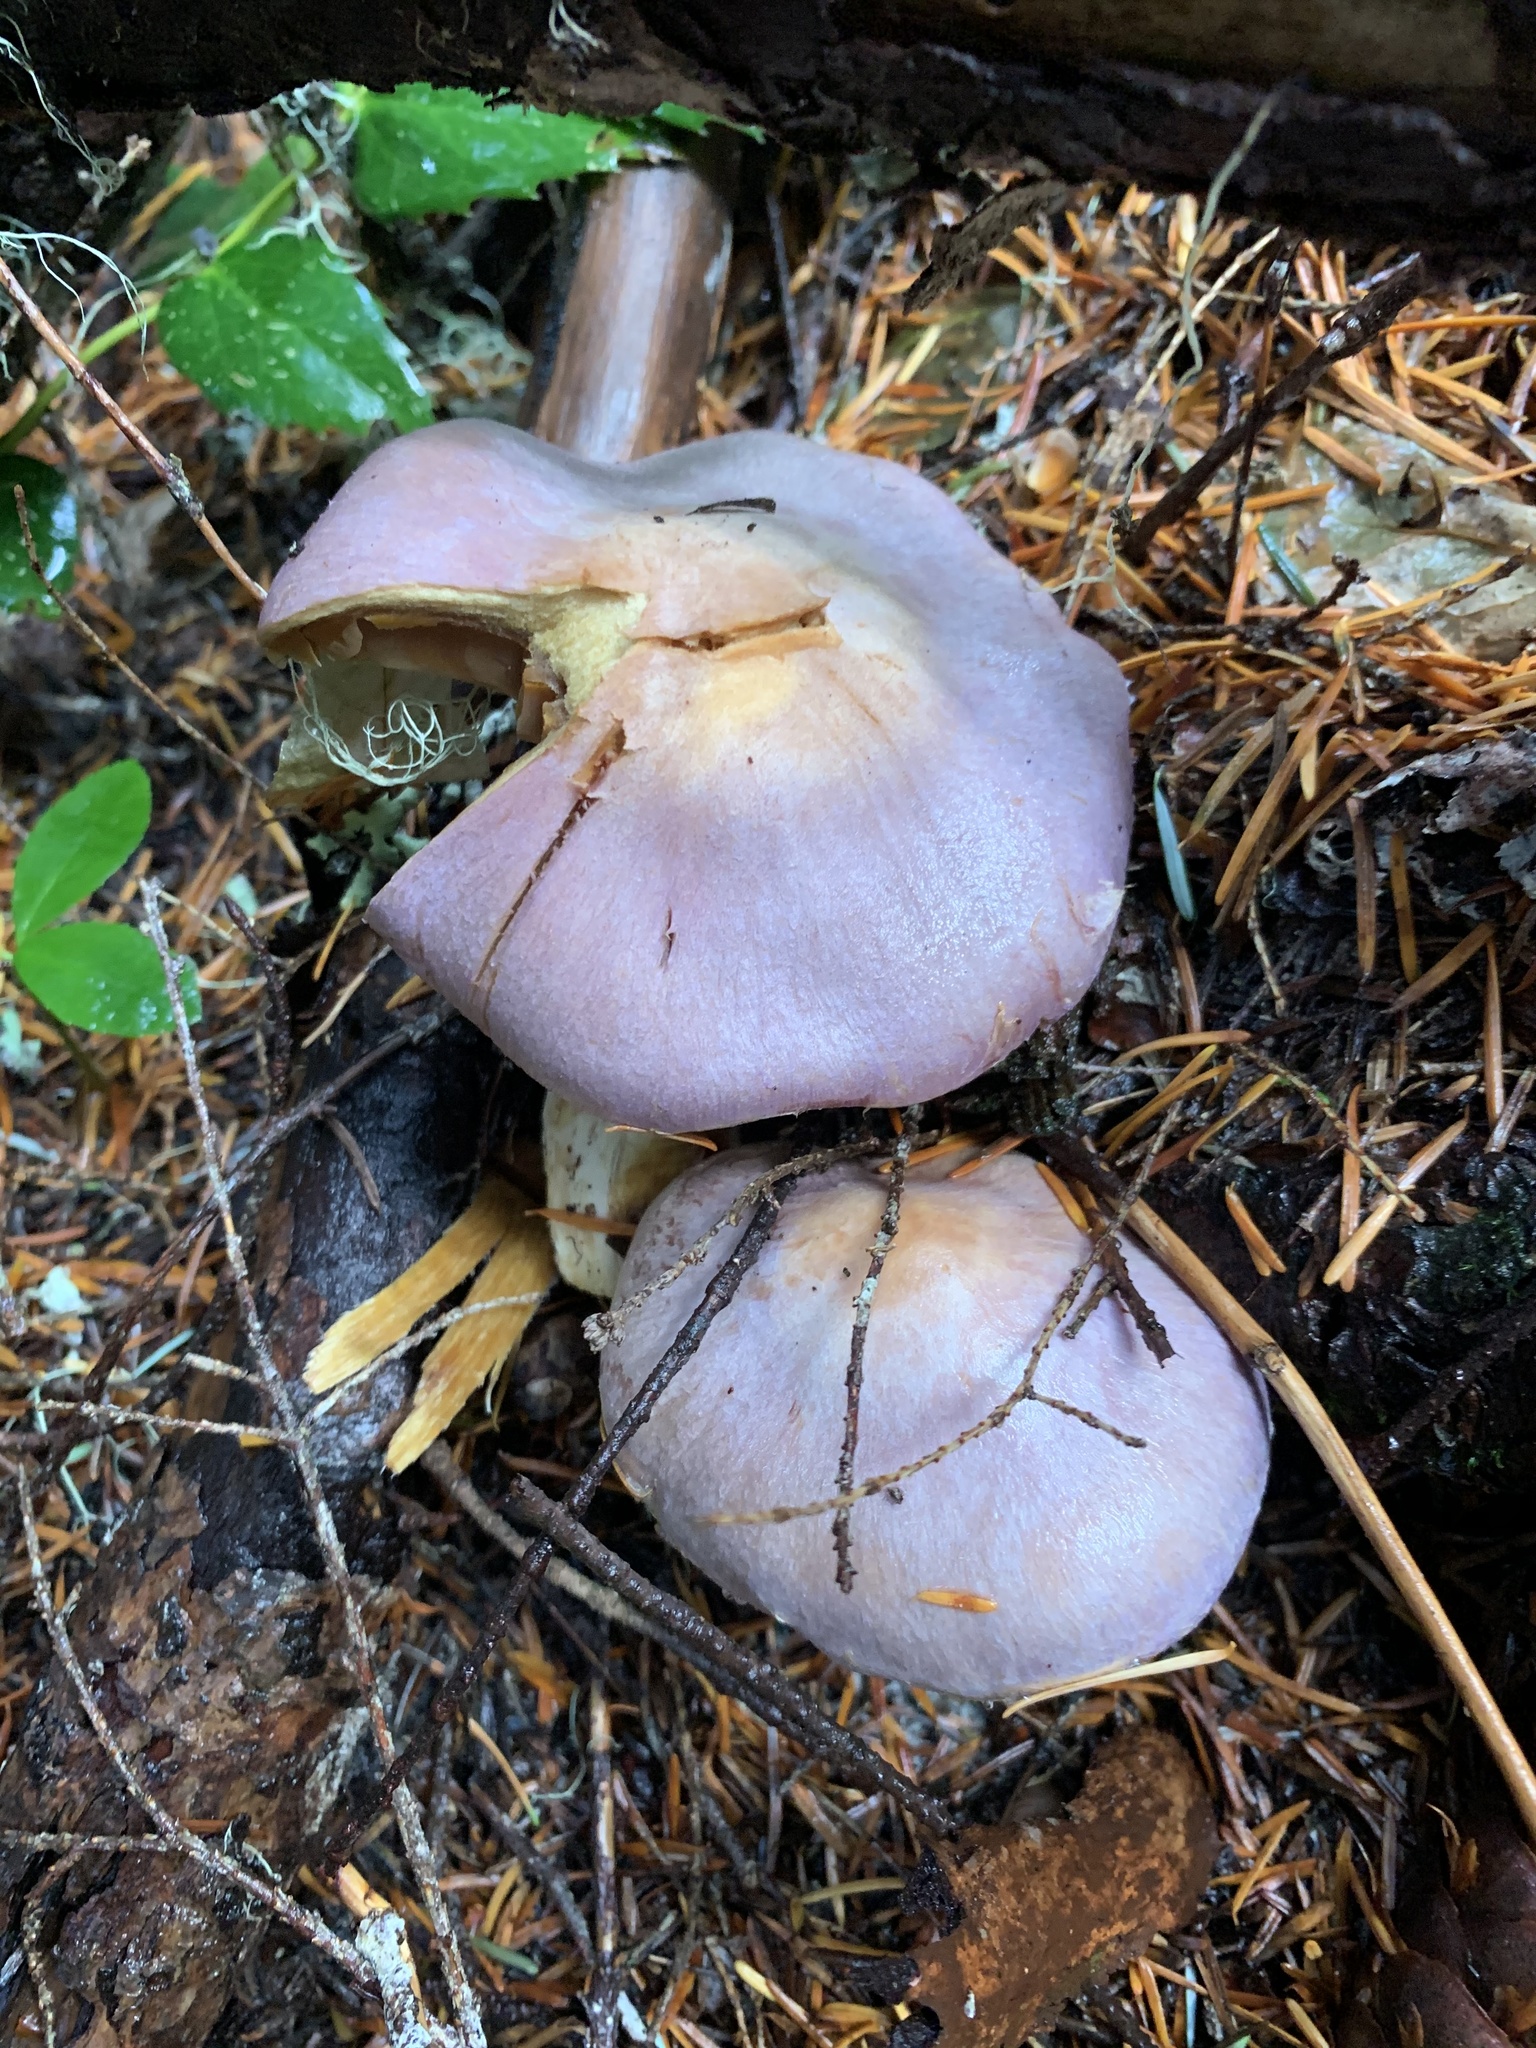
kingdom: Fungi
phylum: Basidiomycota
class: Agaricomycetes
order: Agaricales
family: Cortinariaceae
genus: Cortinarius
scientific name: Cortinarius traganus
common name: Gassy webcap
